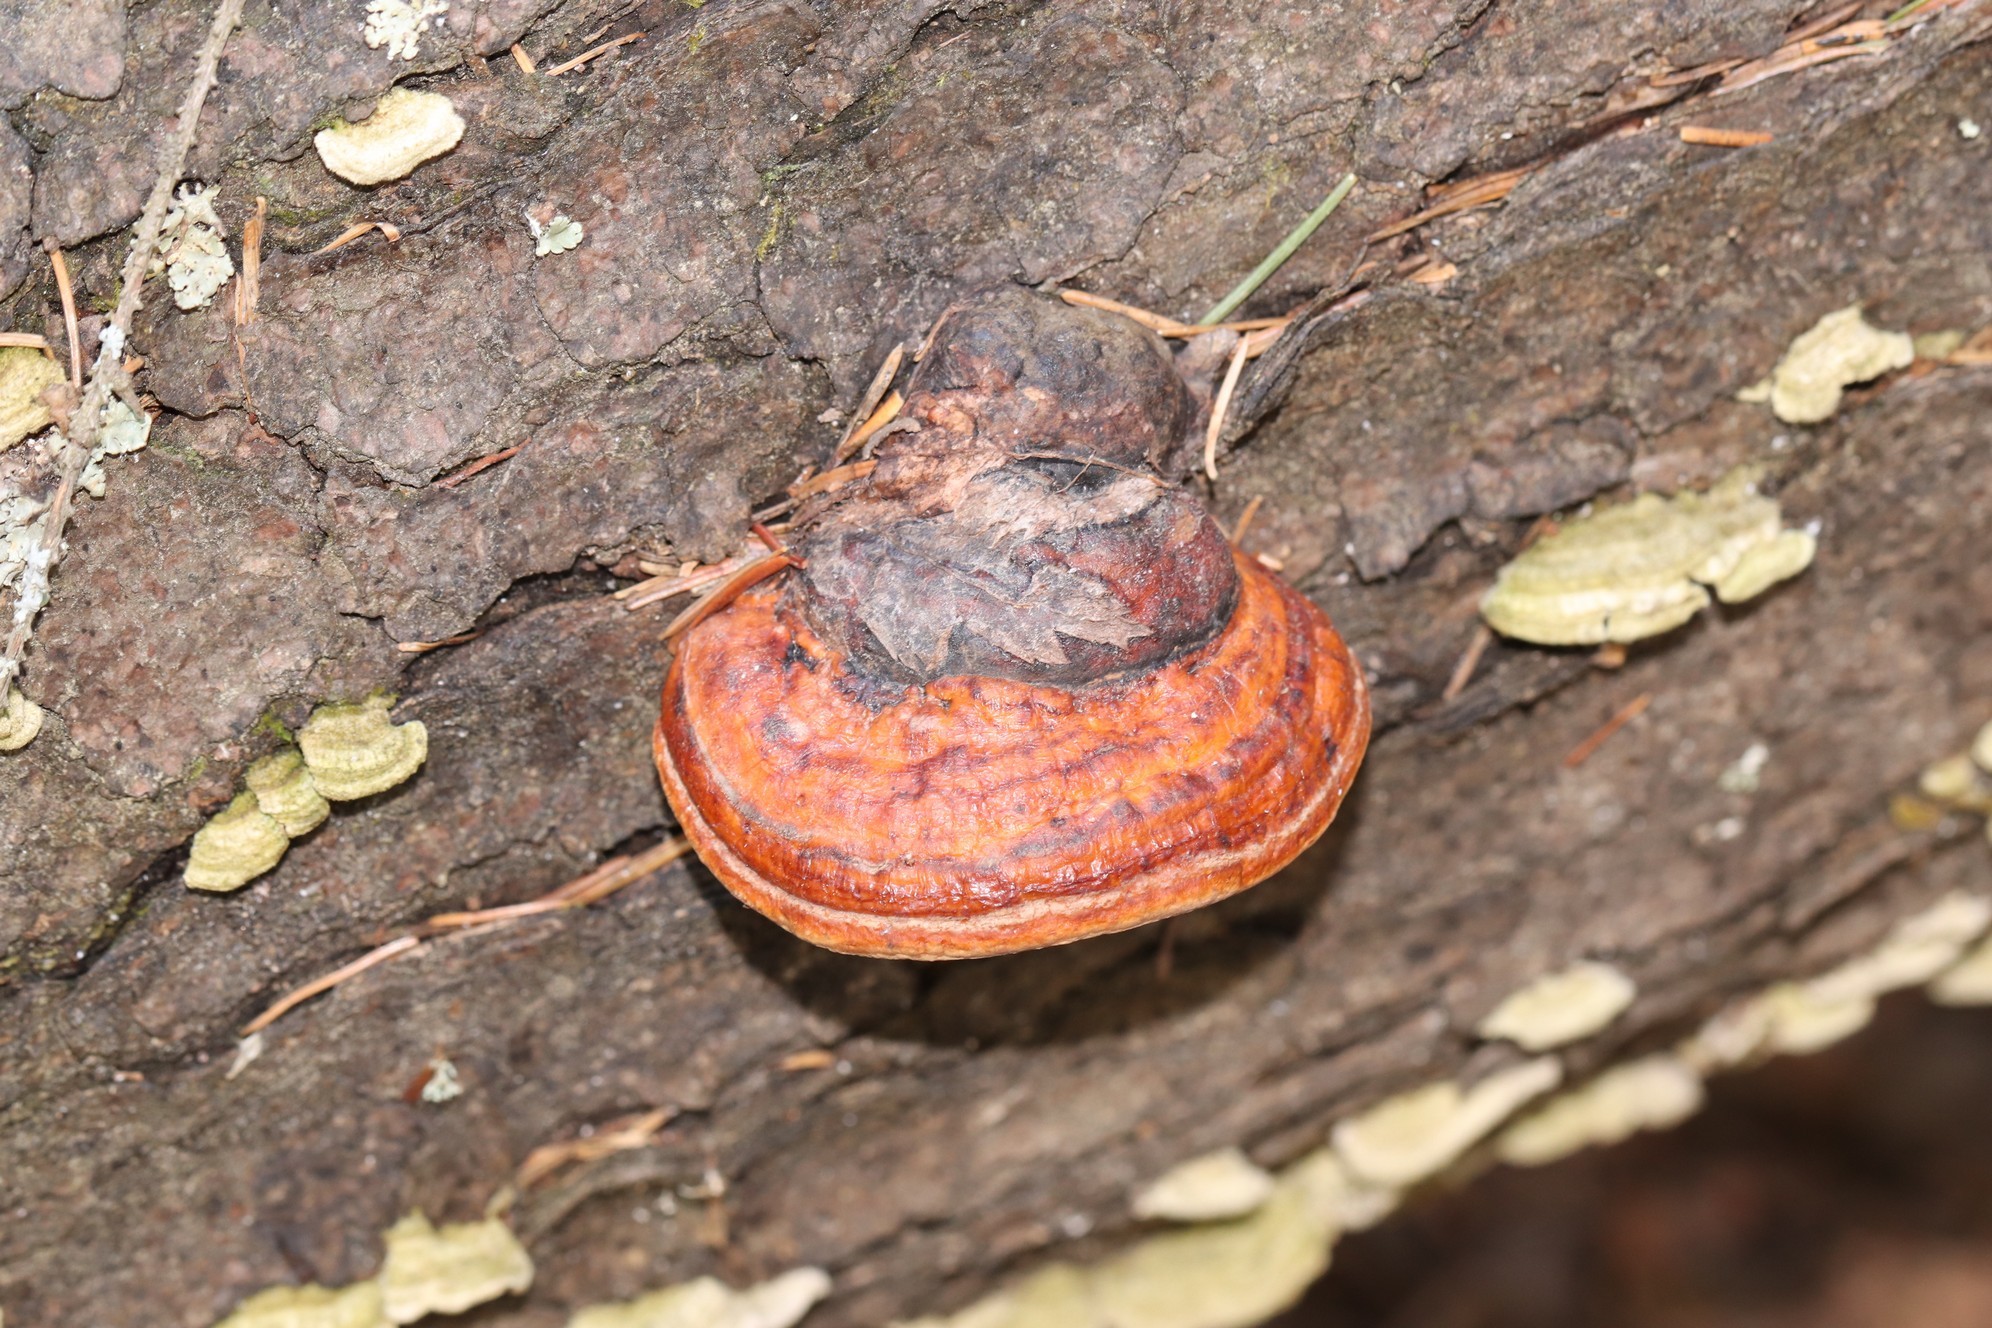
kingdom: Fungi
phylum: Basidiomycota
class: Agaricomycetes
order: Polyporales
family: Fomitopsidaceae
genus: Fomitopsis
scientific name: Fomitopsis pinicola
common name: Red-belted bracket
